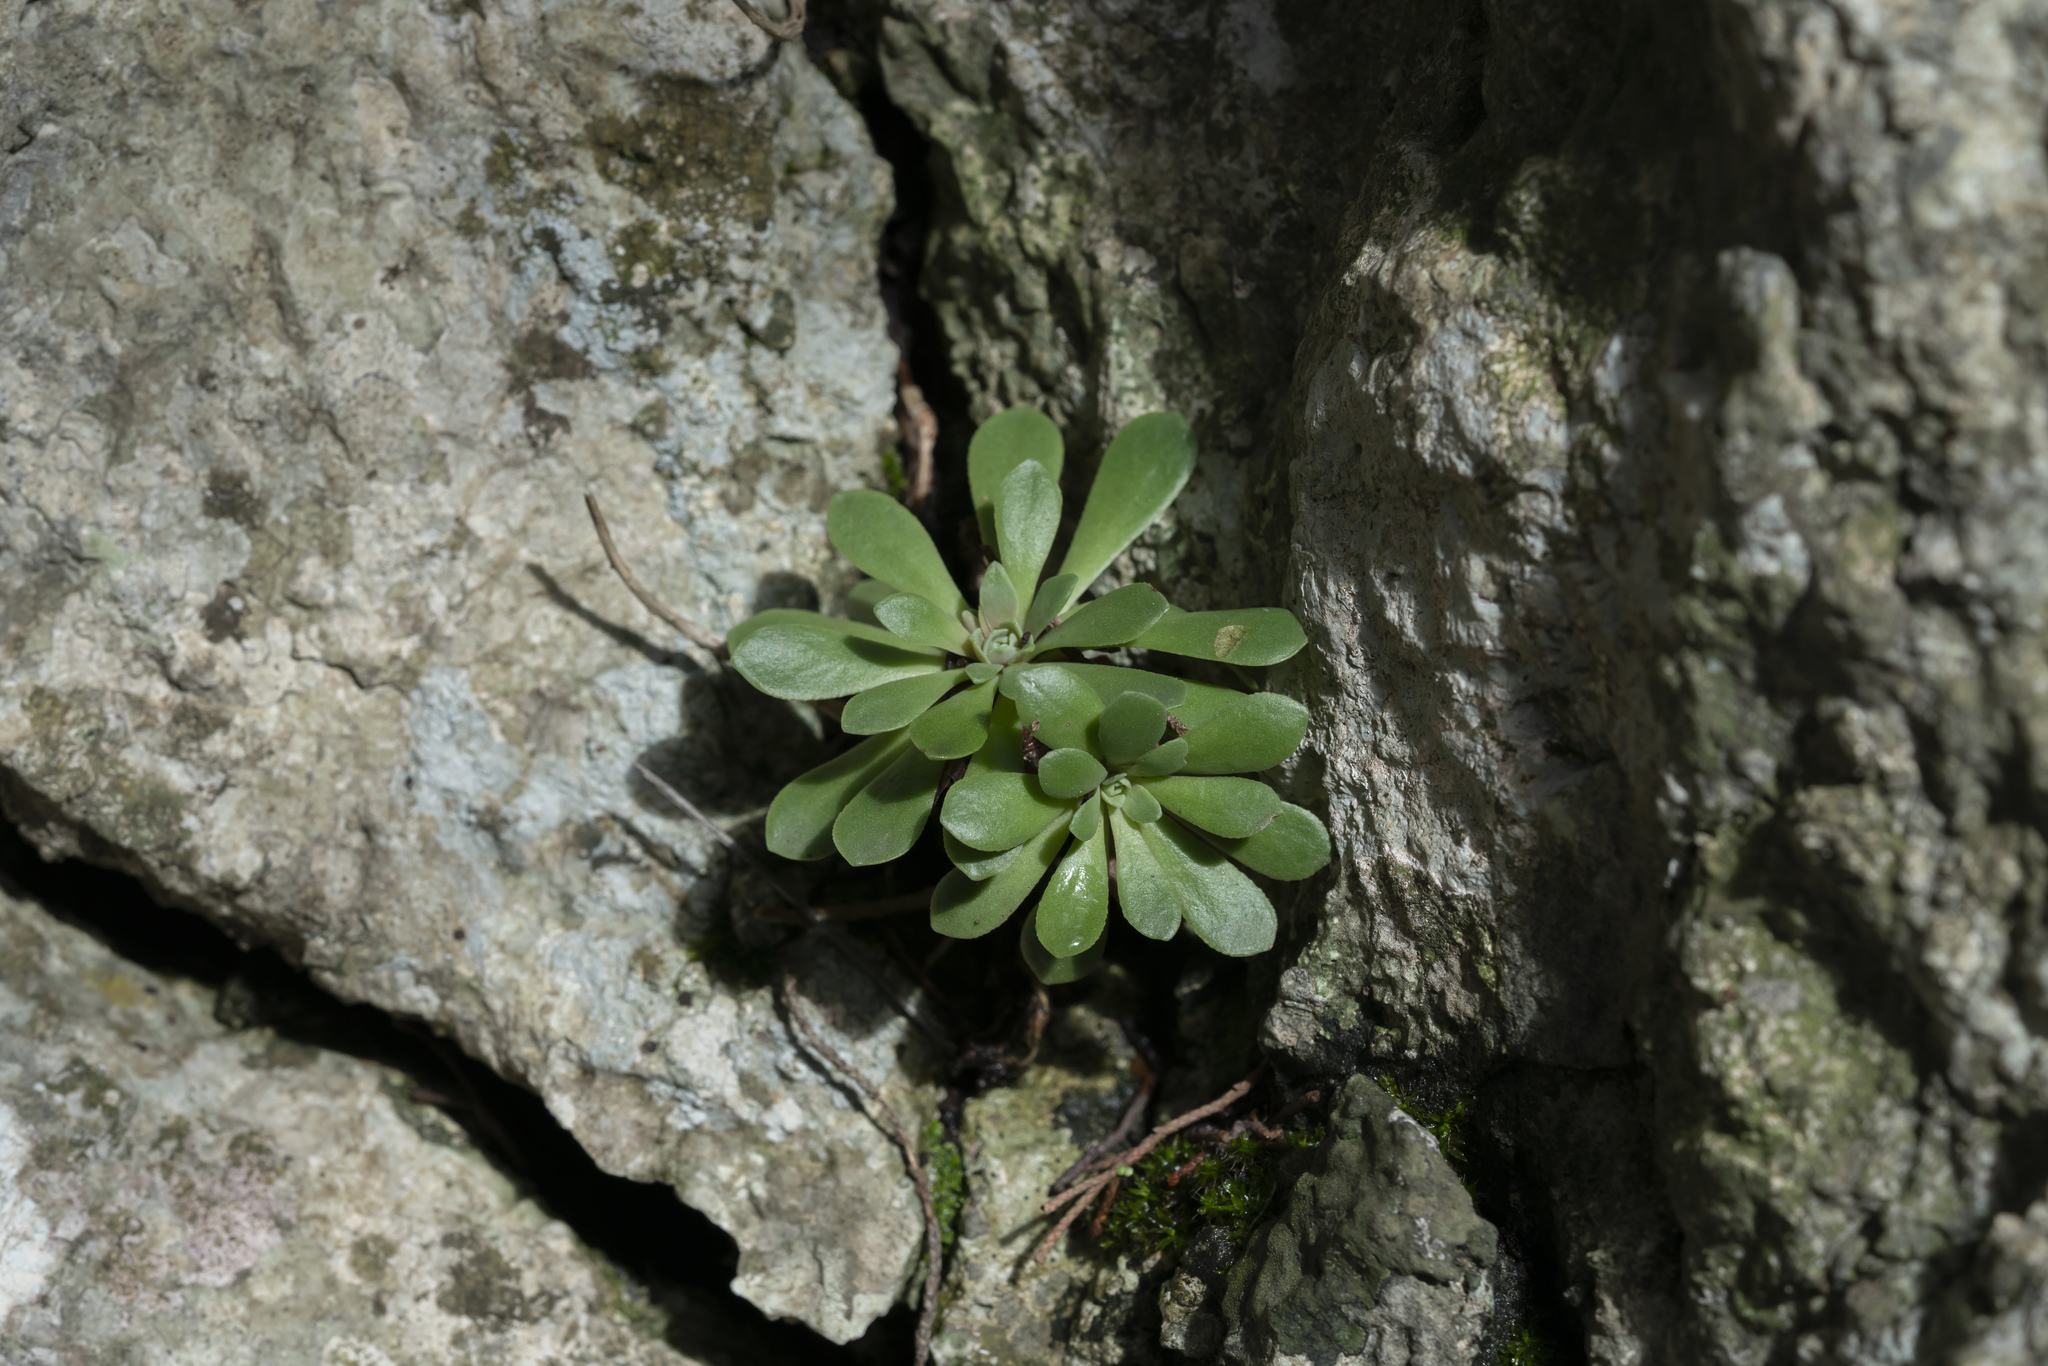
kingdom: Plantae
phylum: Tracheophyta
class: Magnoliopsida
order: Saxifragales
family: Crassulaceae
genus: Rosularia
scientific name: Rosularia serrata
